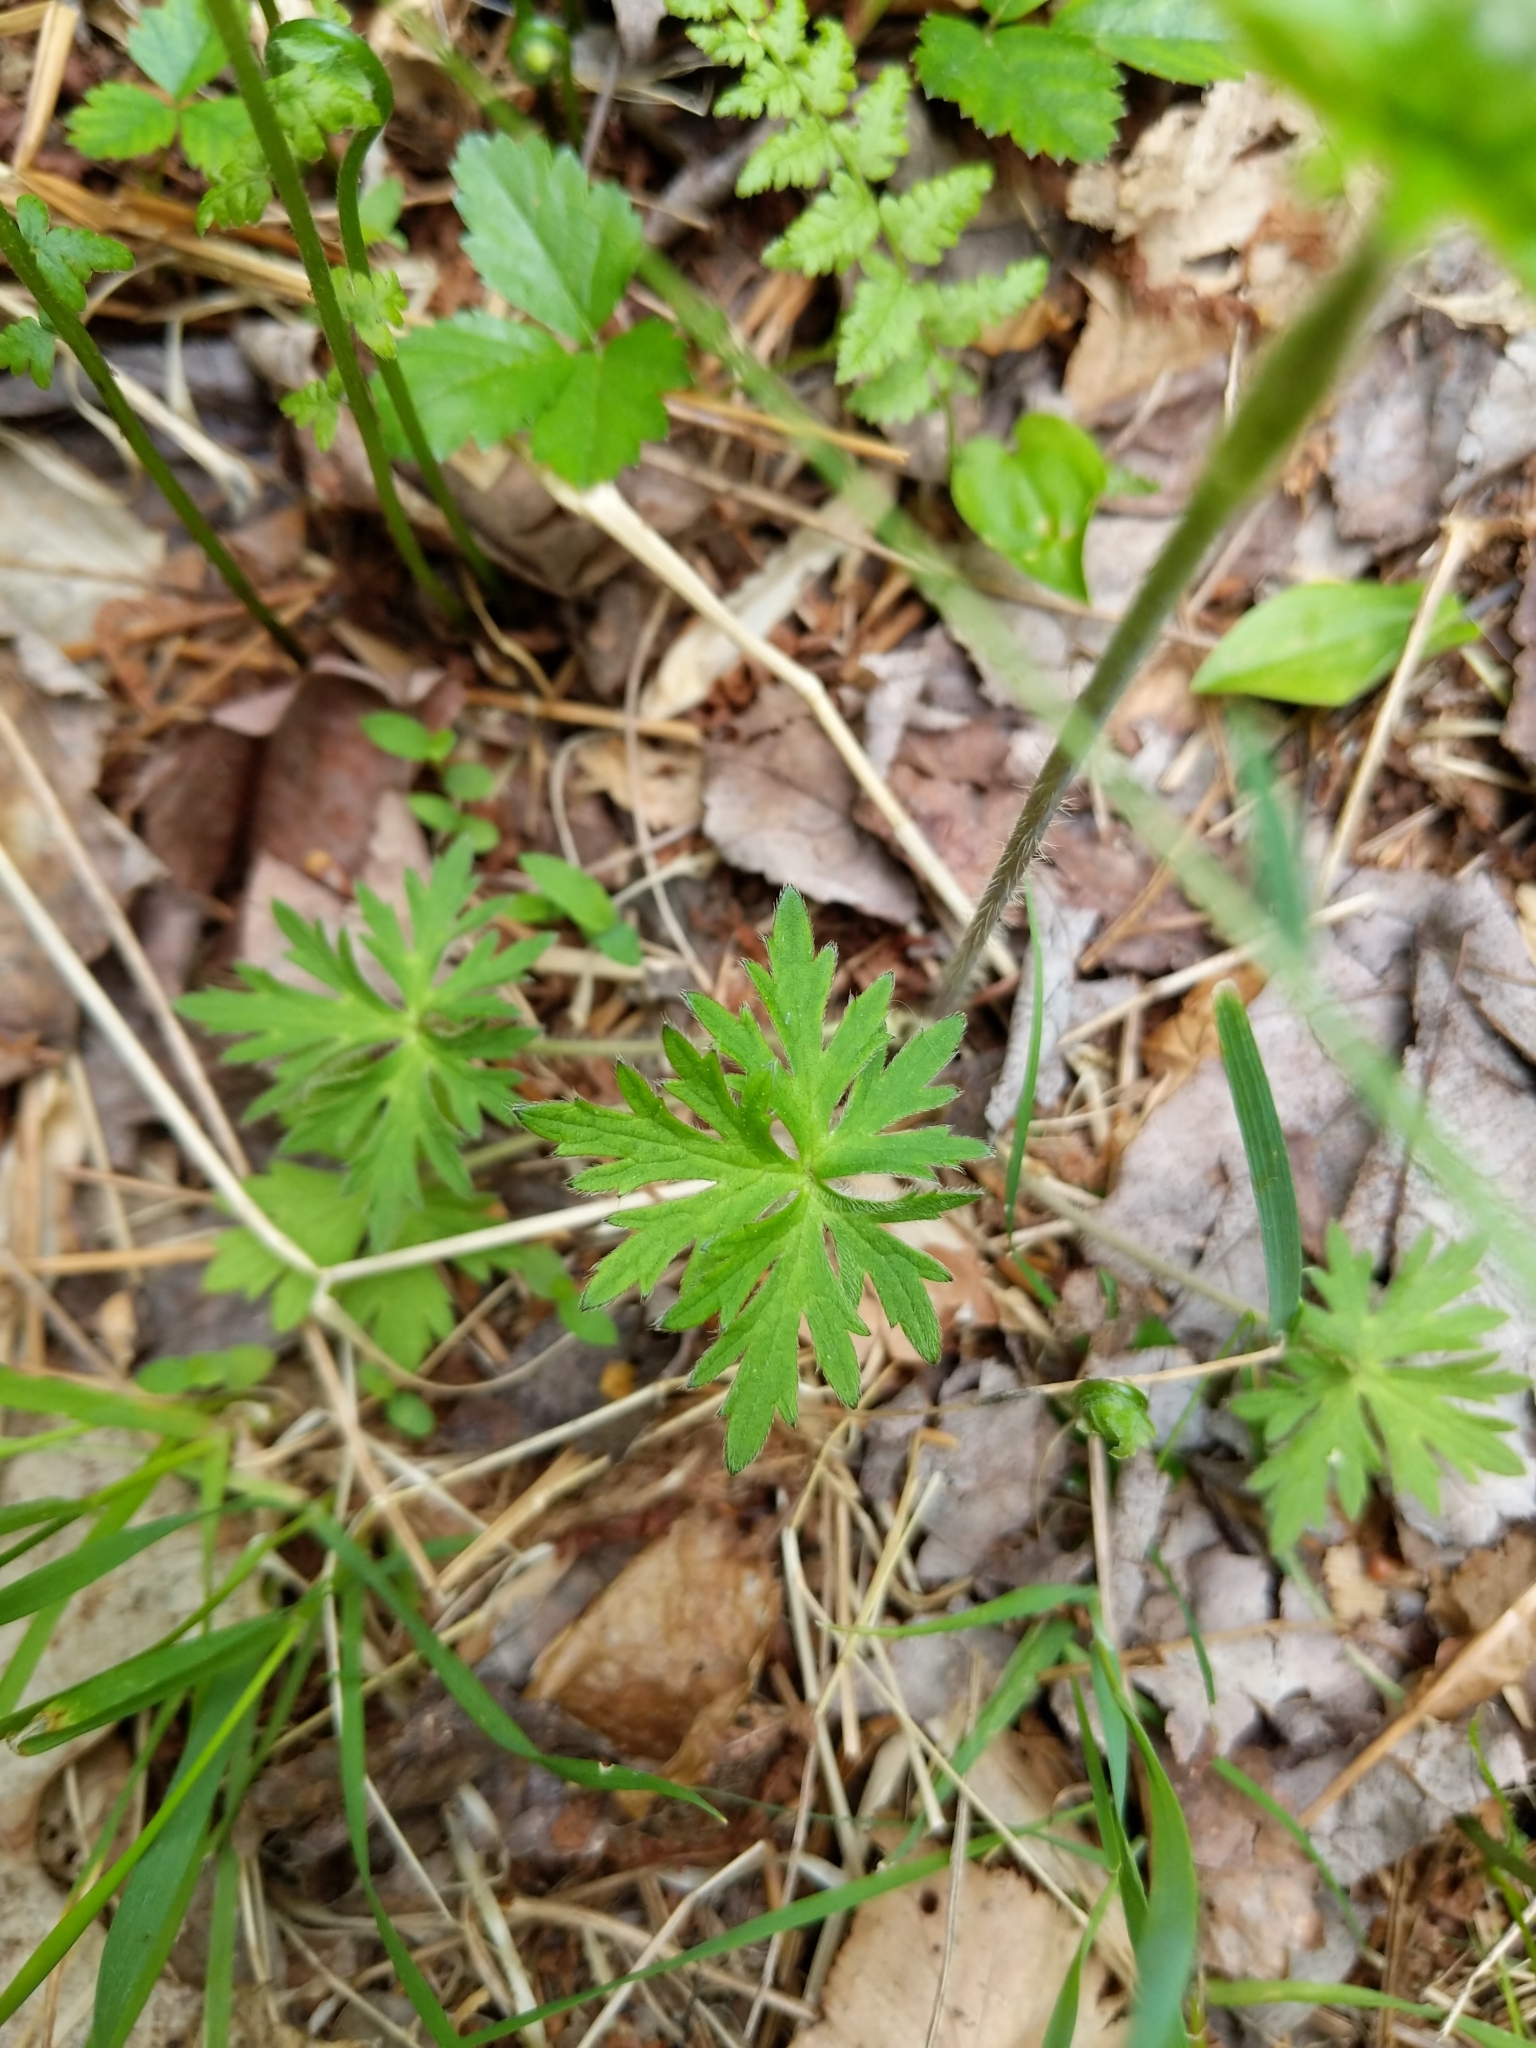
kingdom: Plantae
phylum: Tracheophyta
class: Magnoliopsida
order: Ranunculales
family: Ranunculaceae
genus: Ranunculus
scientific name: Ranunculus acris
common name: Meadow buttercup
